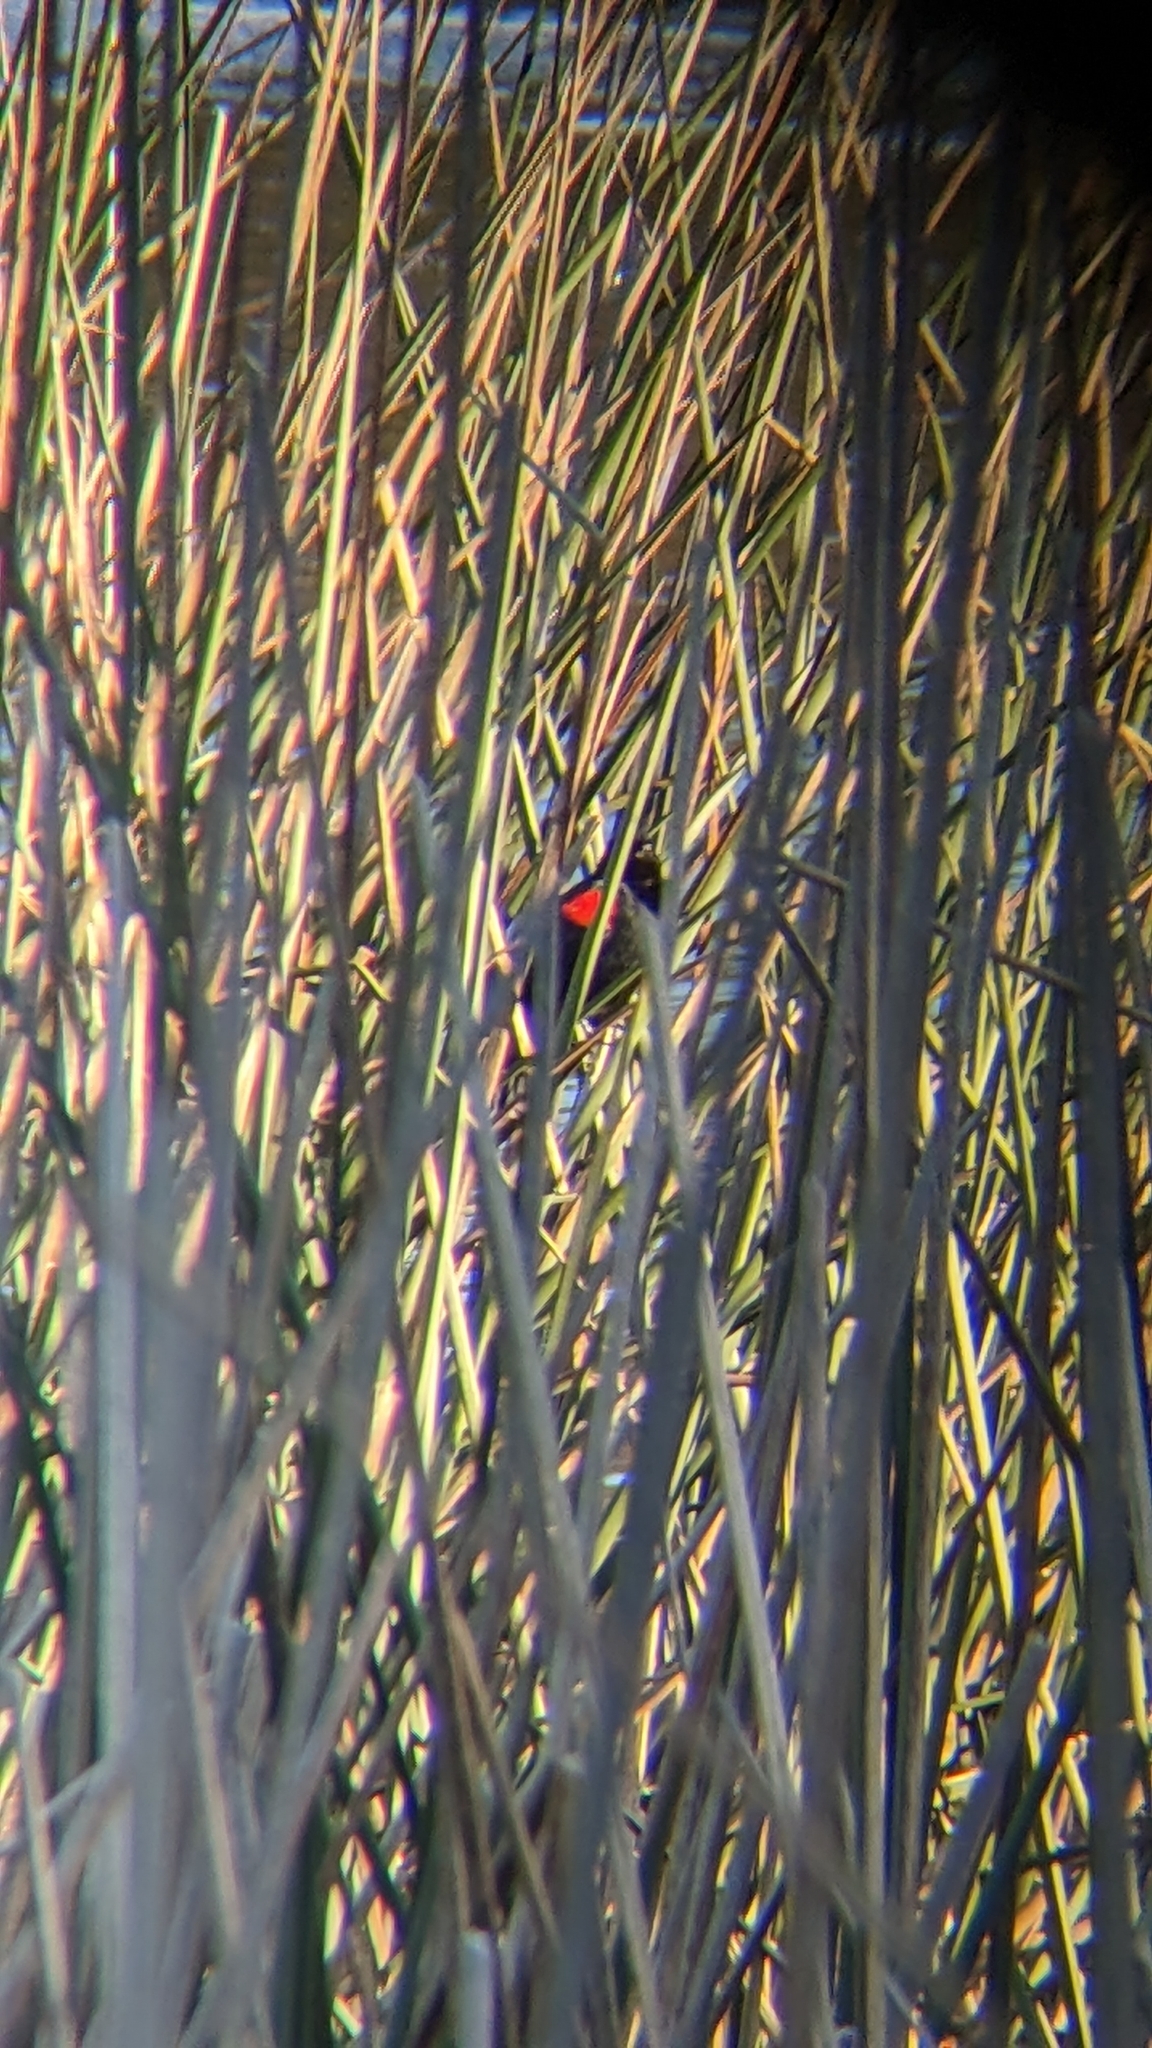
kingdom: Animalia
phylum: Chordata
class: Aves
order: Passeriformes
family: Icteridae
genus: Agelaius
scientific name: Agelaius phoeniceus
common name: Red-winged blackbird
